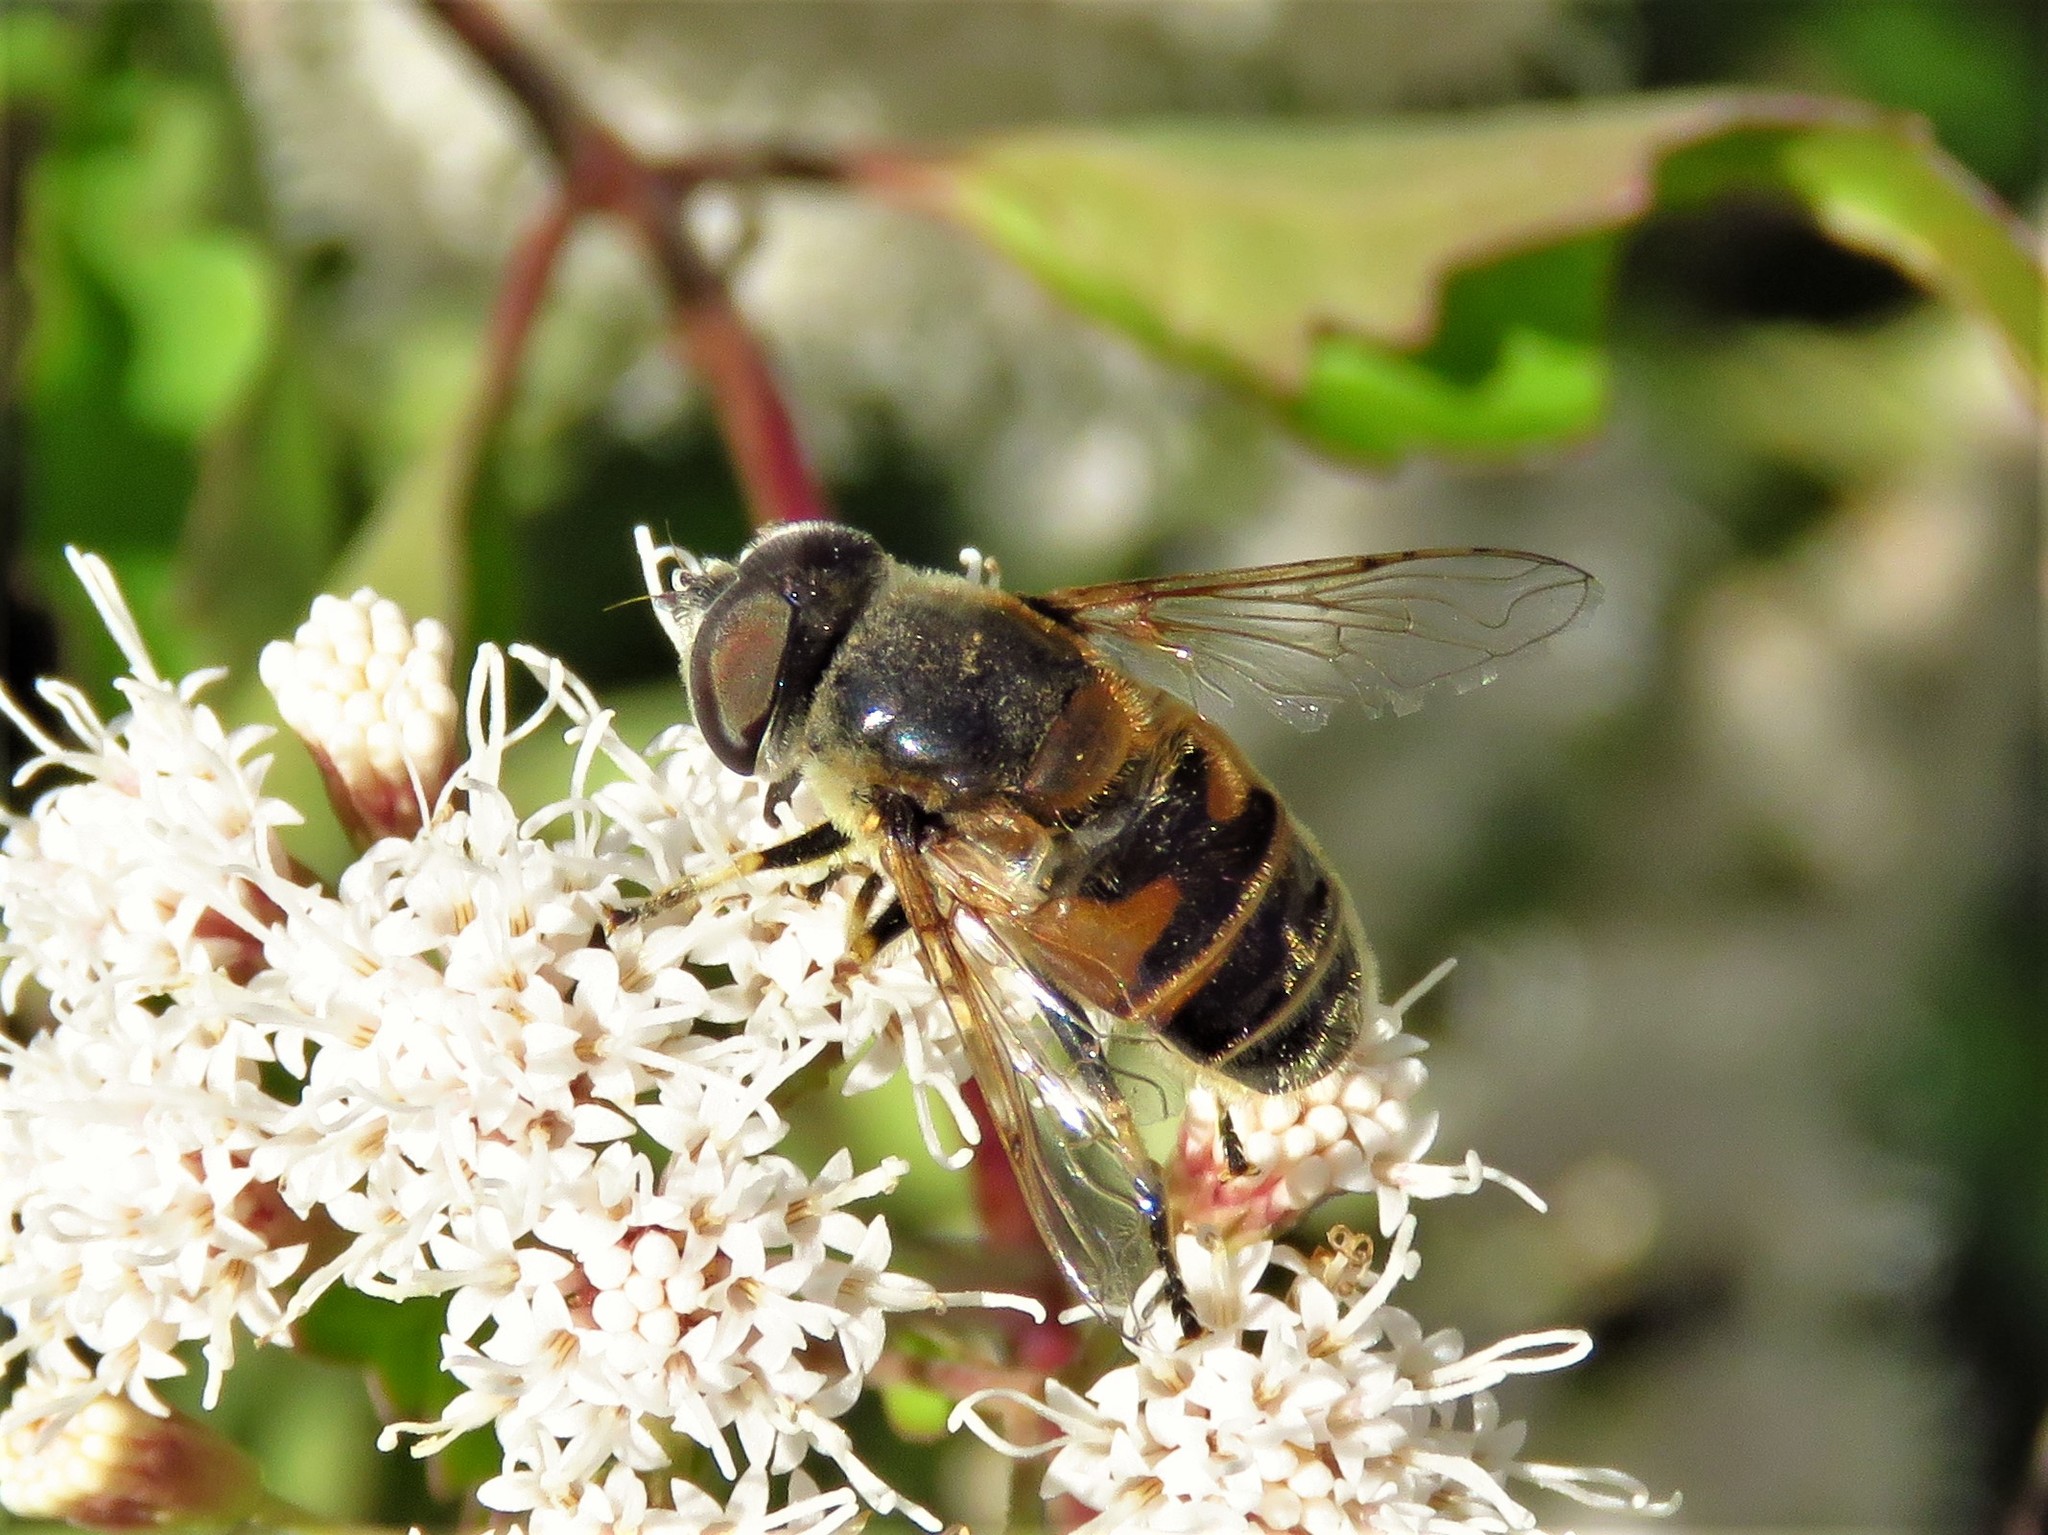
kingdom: Animalia
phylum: Arthropoda
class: Insecta
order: Diptera
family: Syrphidae
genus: Eristalis
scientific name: Eristalis stipator
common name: Yellow-shouldered drone fly
